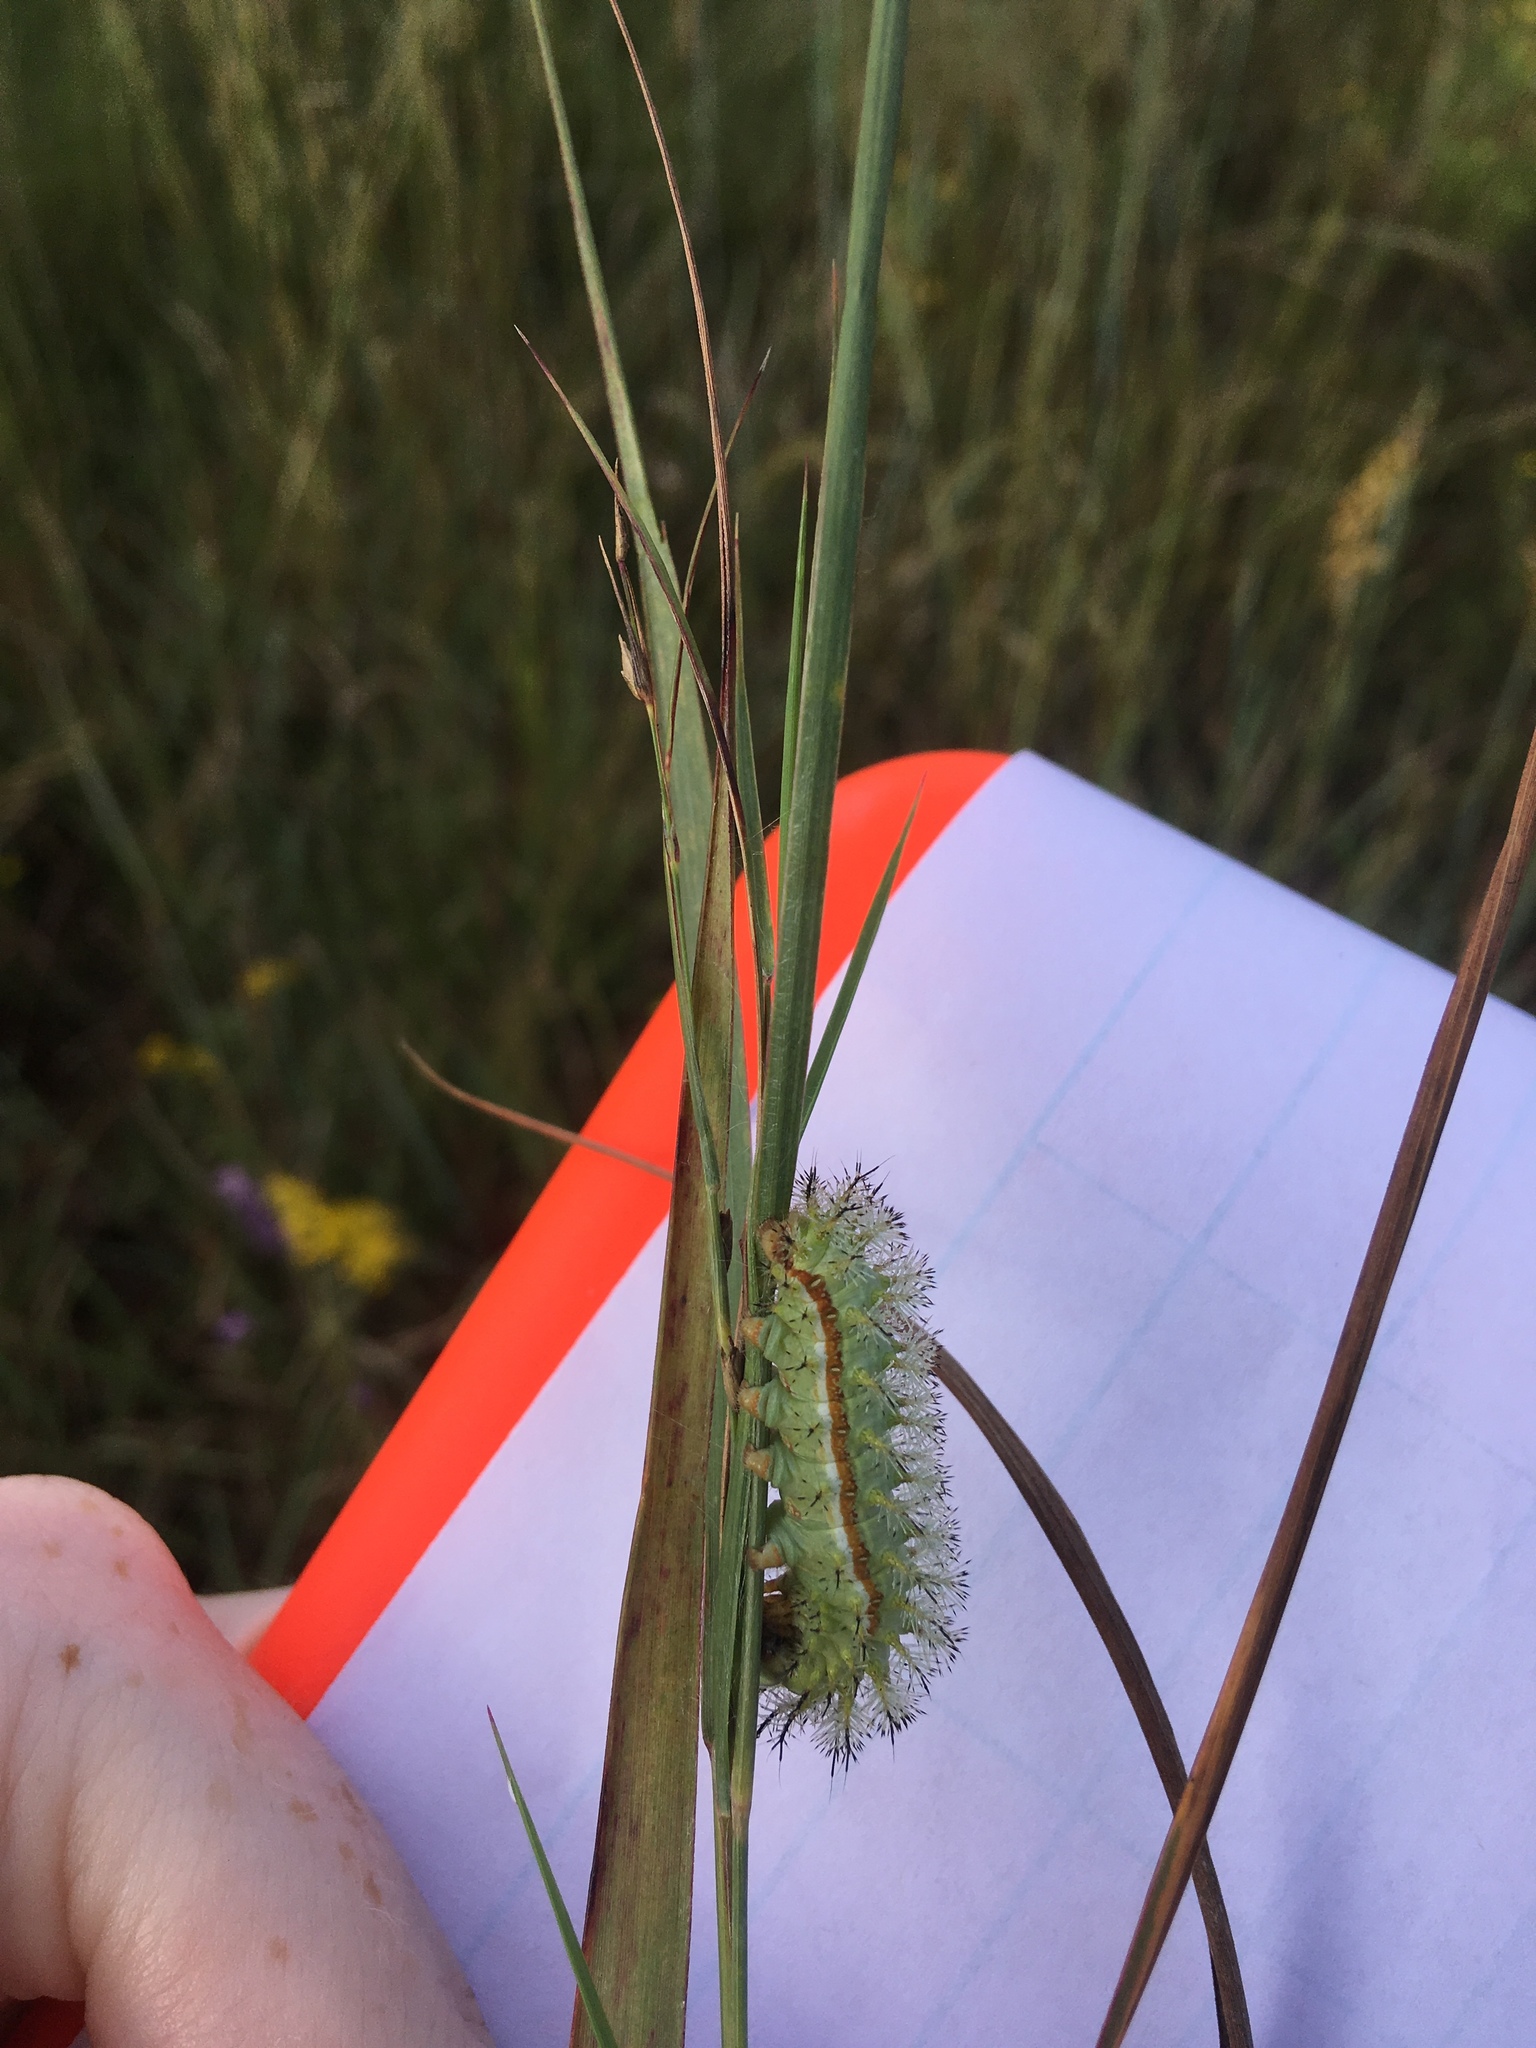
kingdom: Animalia
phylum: Arthropoda
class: Insecta
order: Lepidoptera
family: Saturniidae
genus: Automeris
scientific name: Automeris io
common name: Io moth
